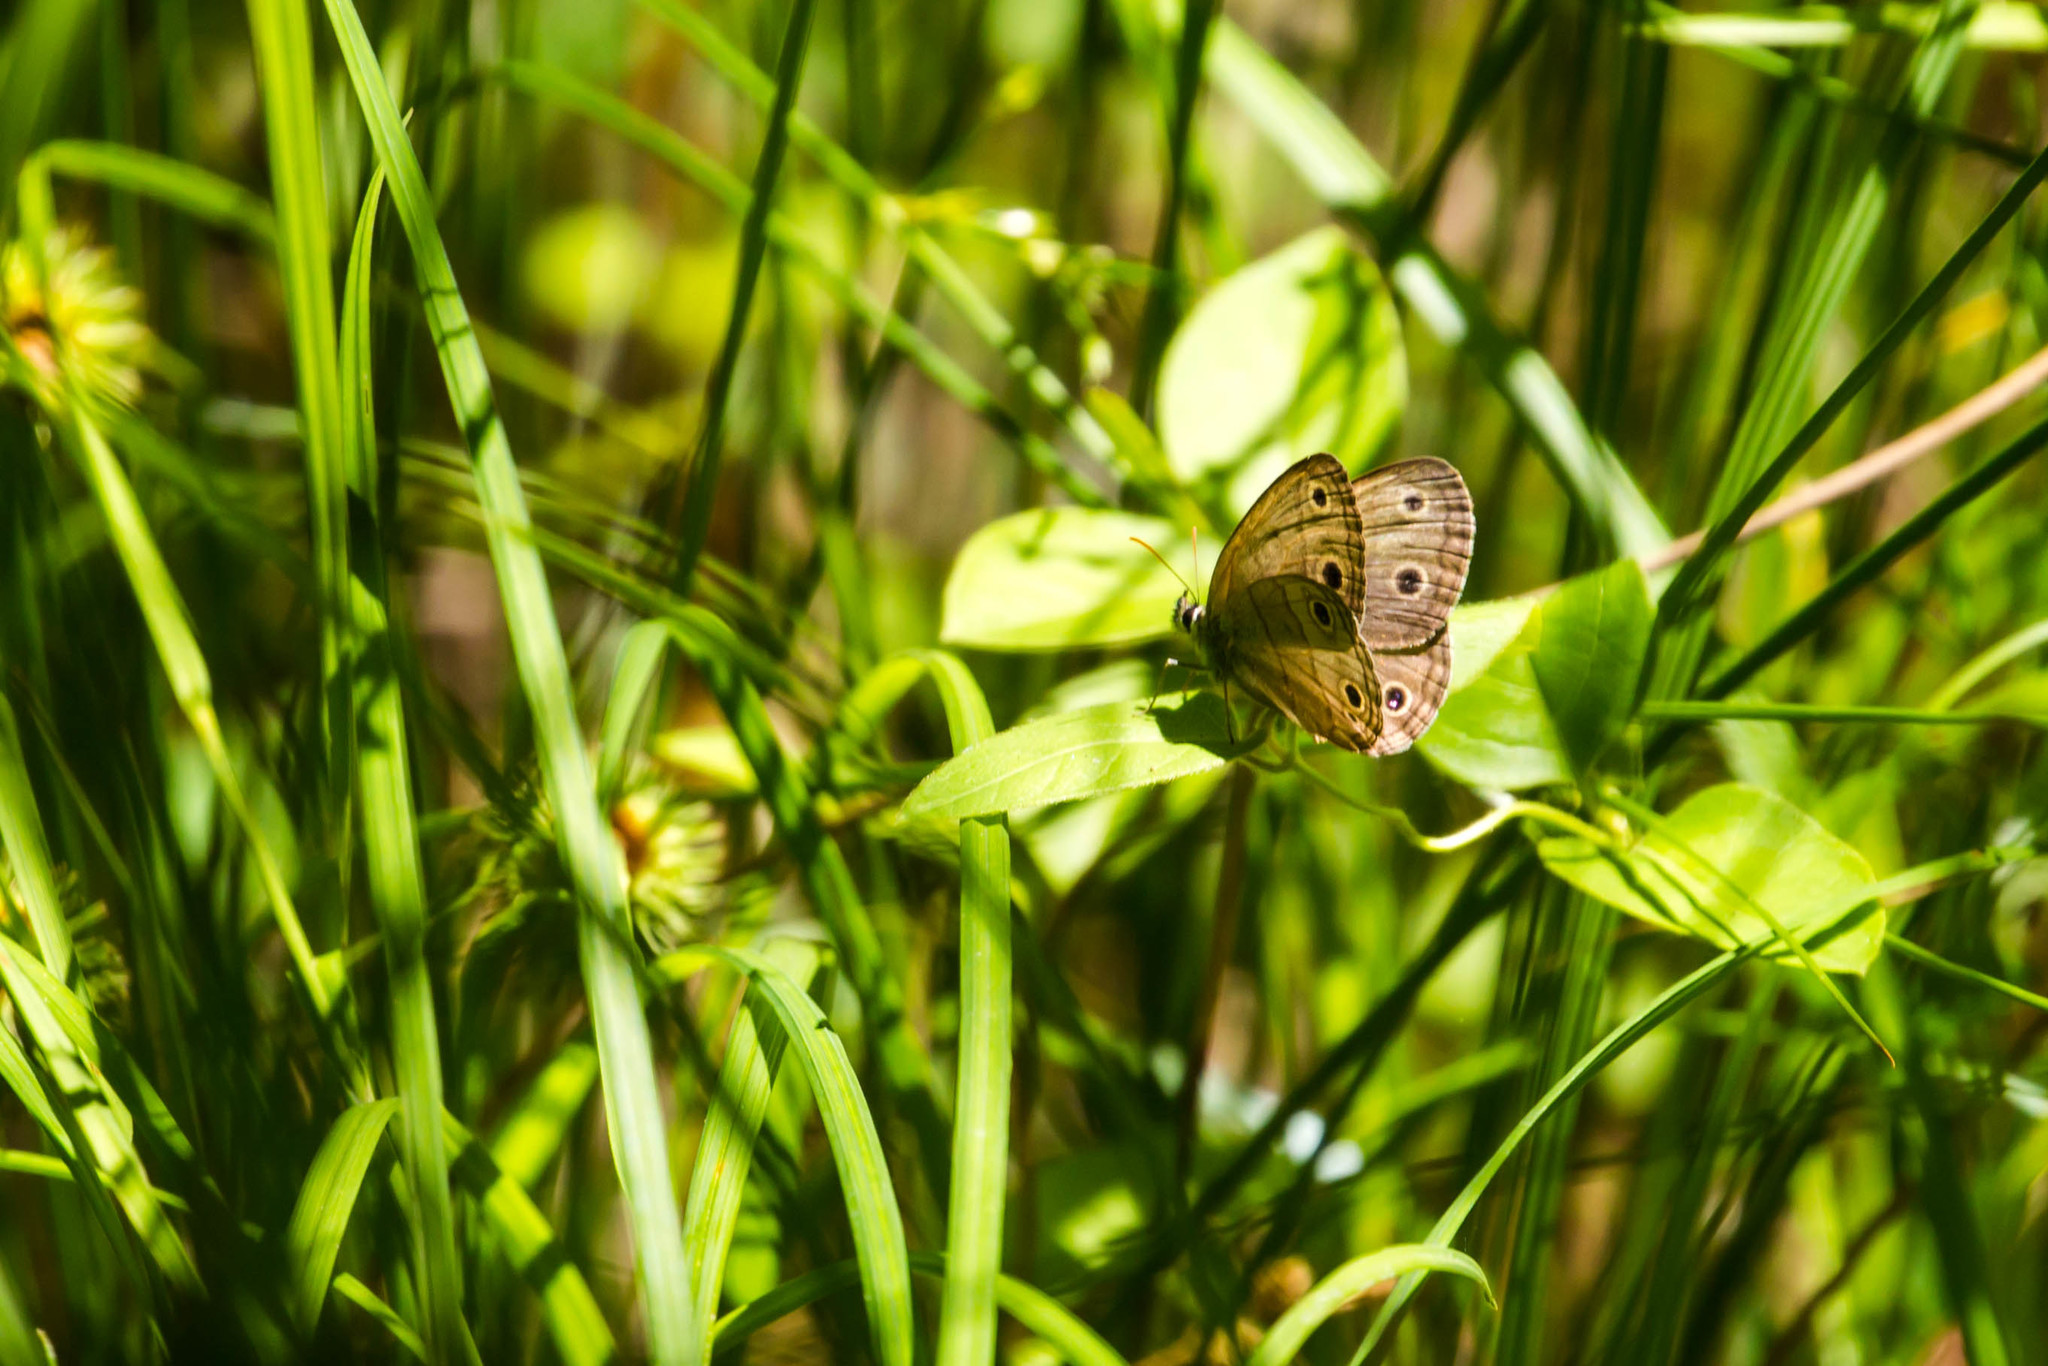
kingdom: Animalia
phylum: Arthropoda
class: Insecta
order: Lepidoptera
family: Nymphalidae
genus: Euptychia
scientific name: Euptychia cymela
